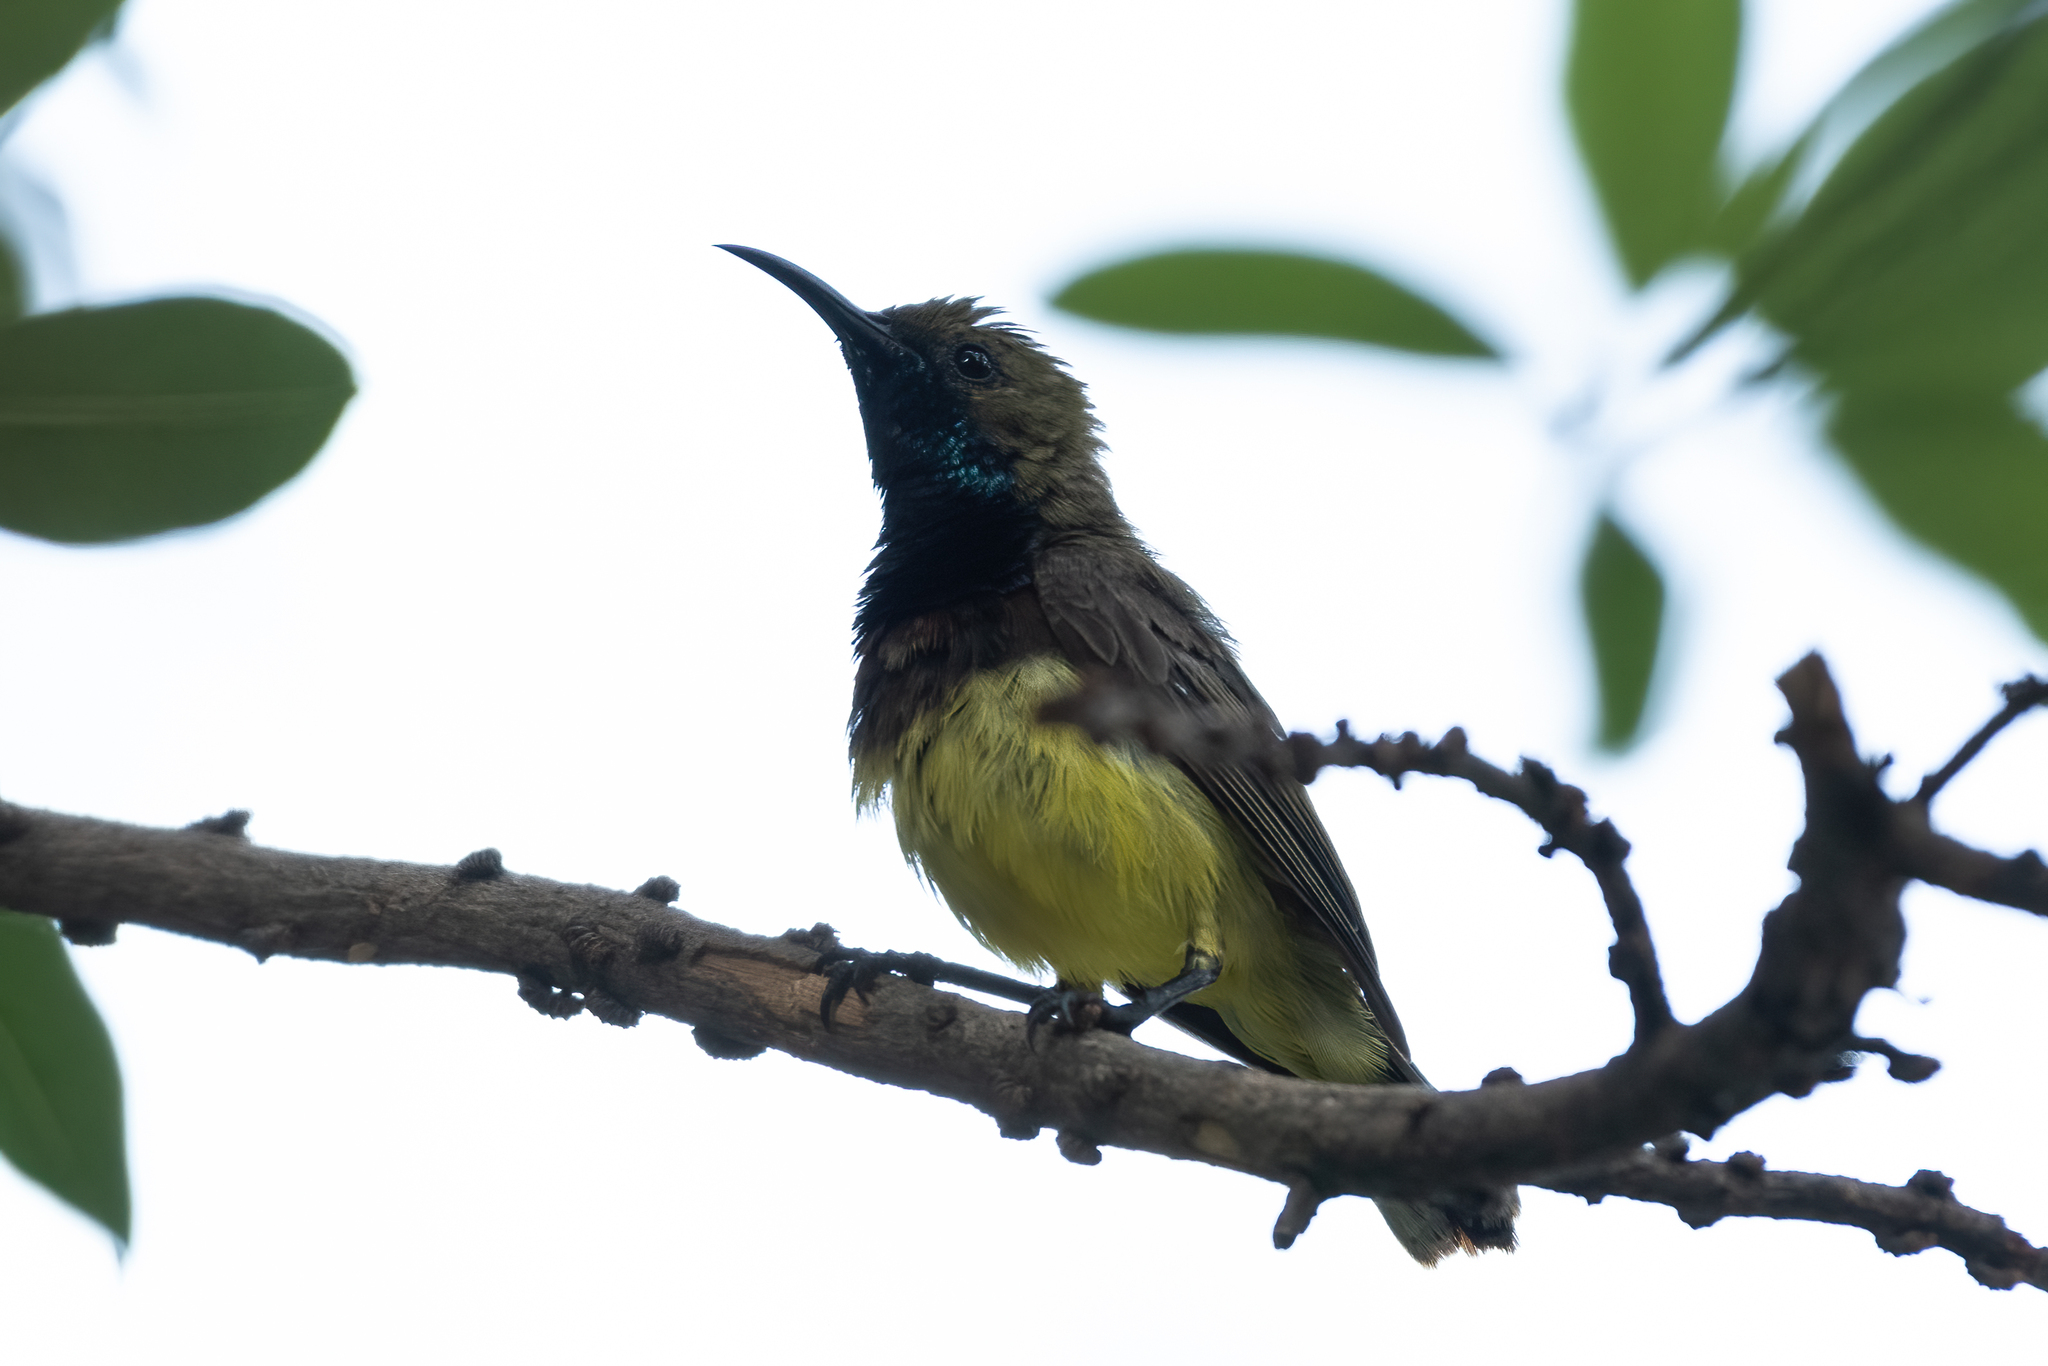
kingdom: Animalia
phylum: Chordata
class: Aves
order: Passeriformes
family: Nectariniidae
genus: Cinnyris
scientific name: Cinnyris
